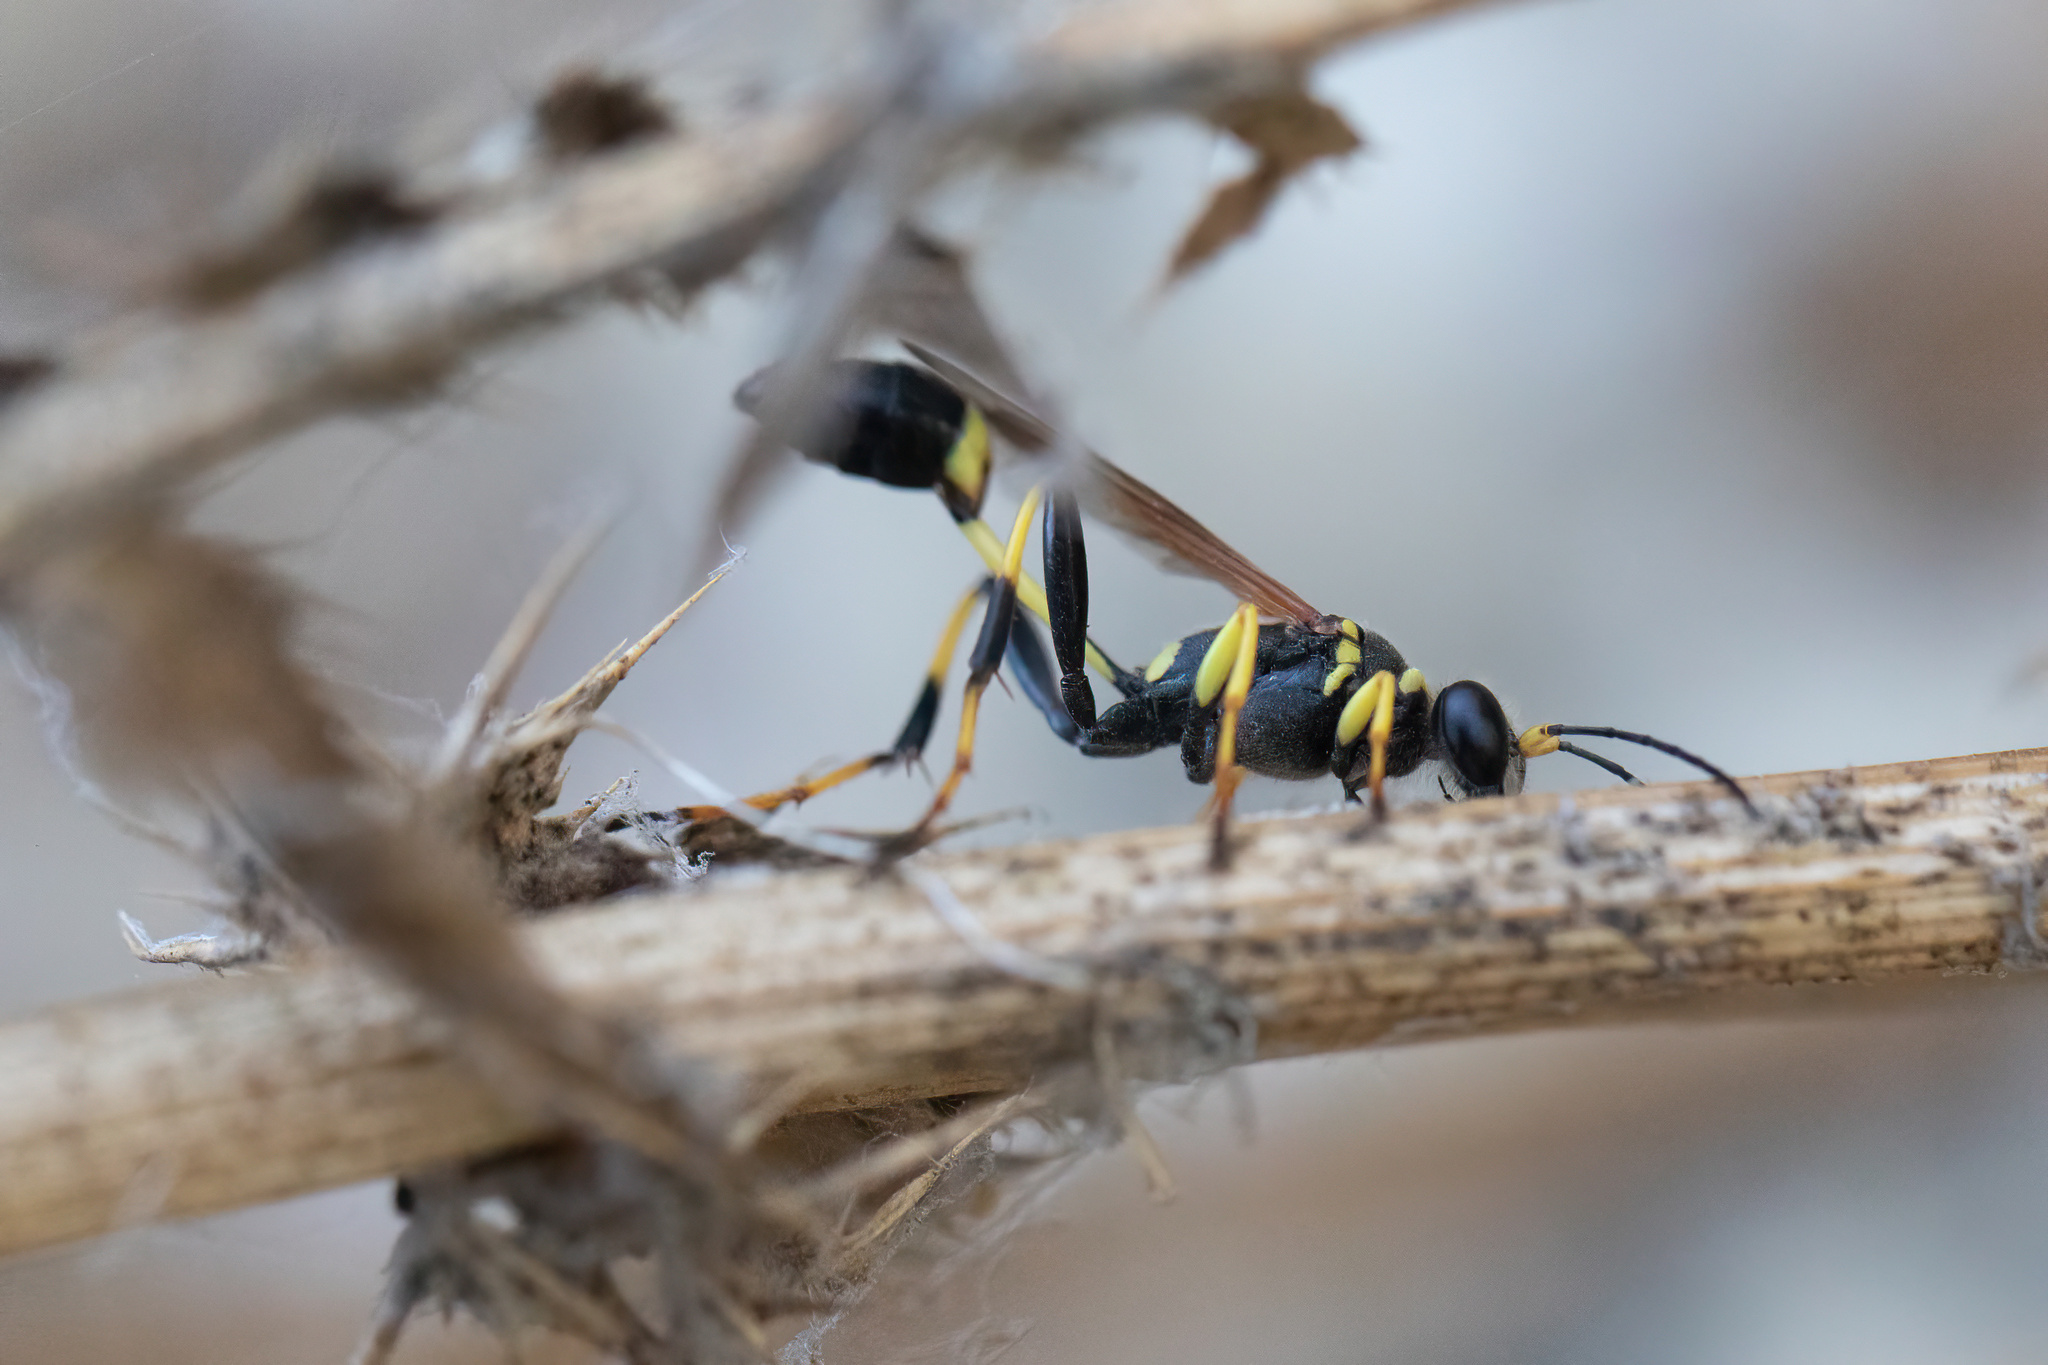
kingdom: Animalia
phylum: Arthropoda
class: Insecta
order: Hymenoptera
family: Sphecidae
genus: Sceliphron
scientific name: Sceliphron caementarium
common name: Mud dauber
